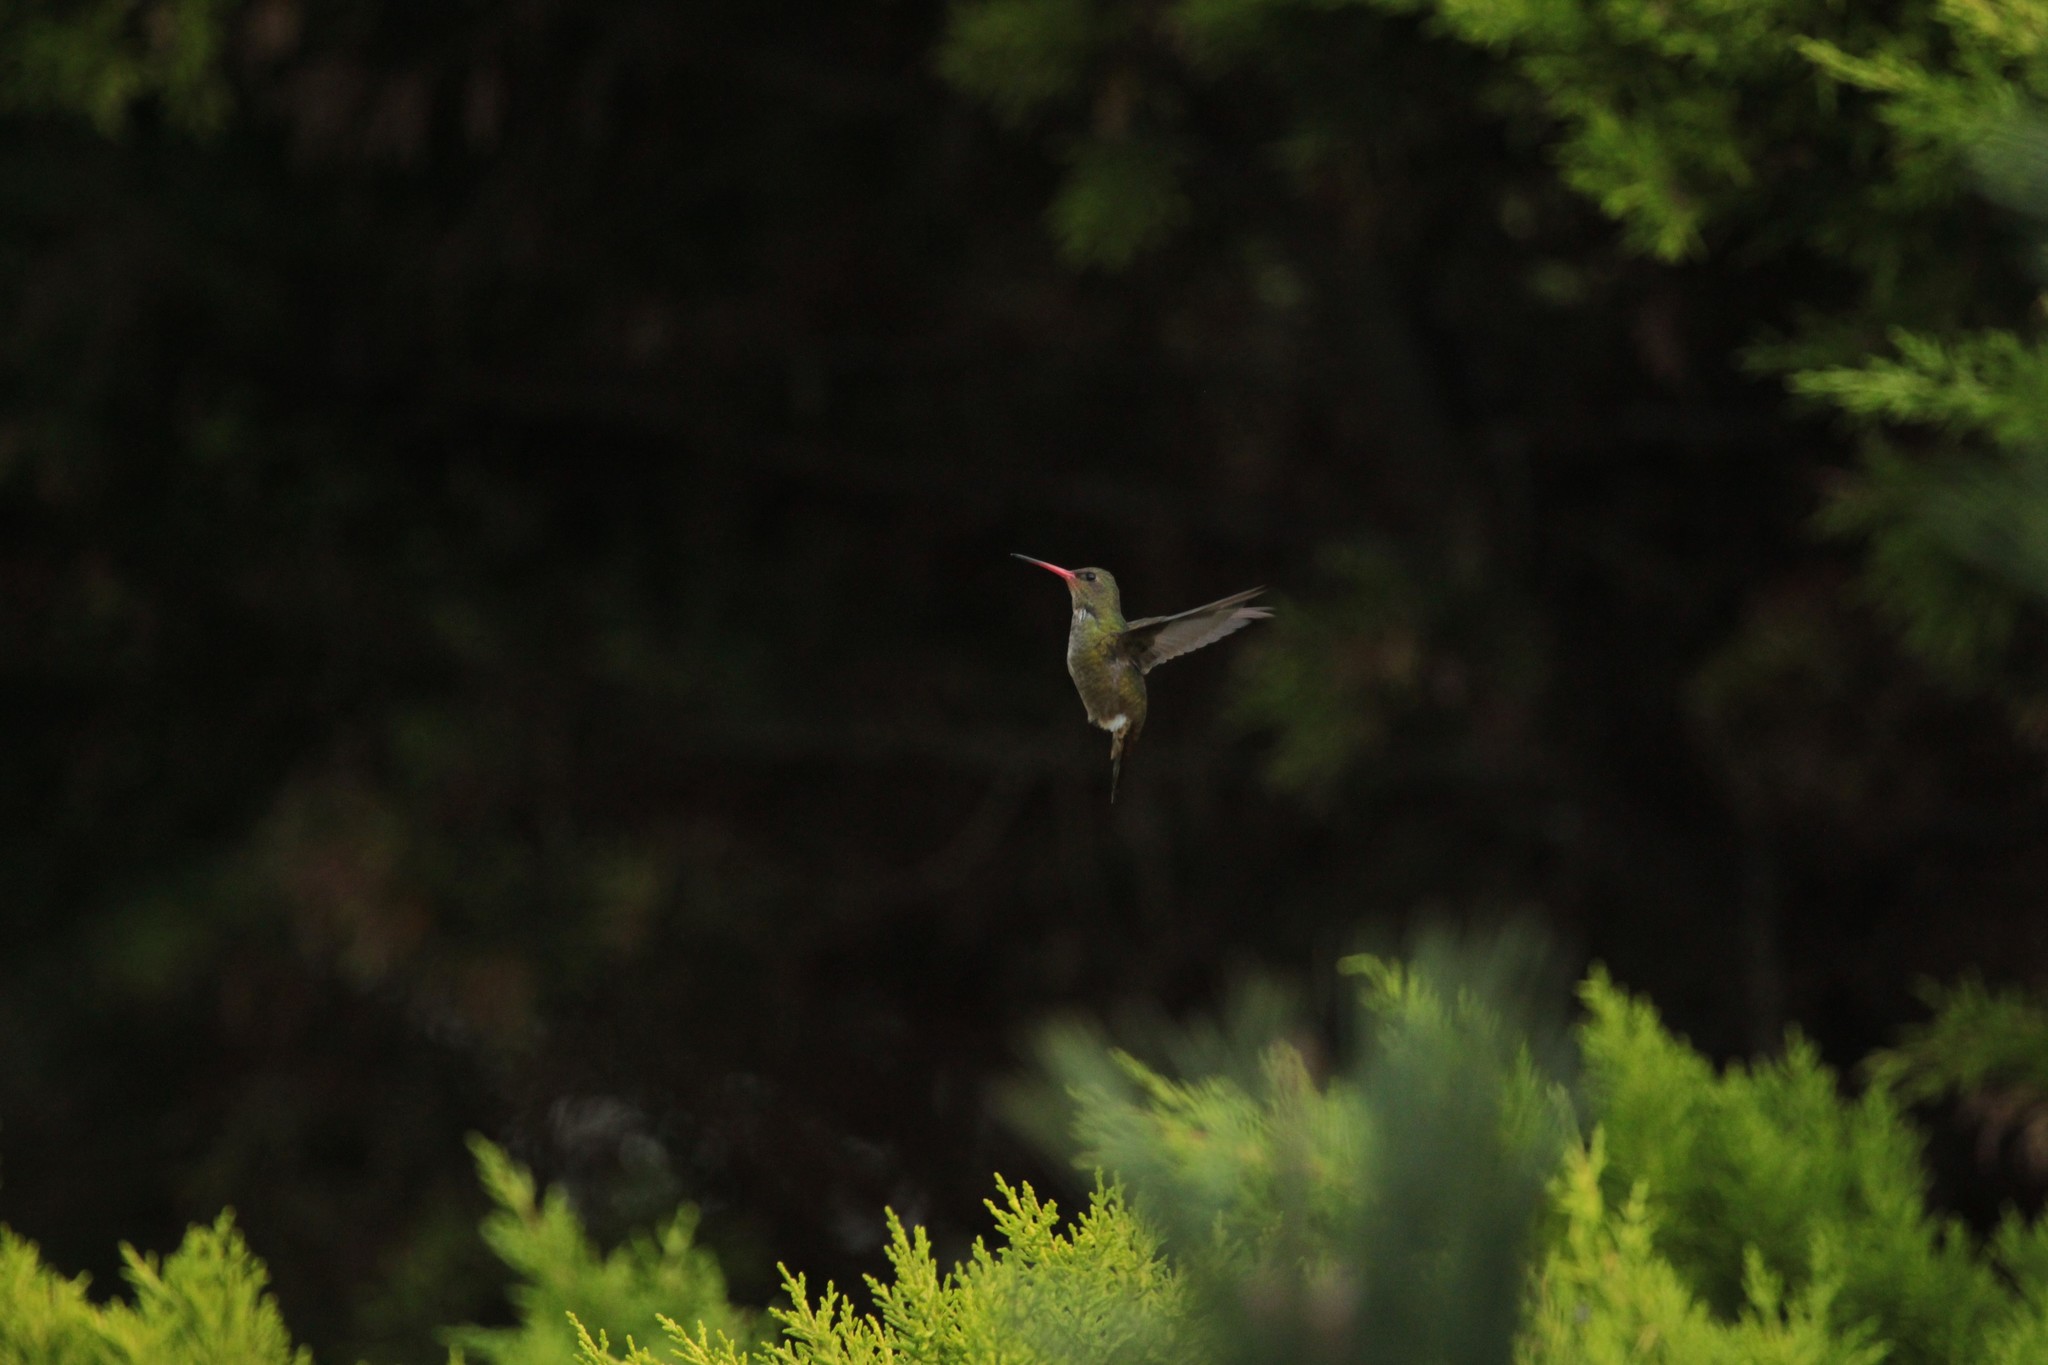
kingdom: Animalia
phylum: Chordata
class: Aves
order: Apodiformes
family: Trochilidae
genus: Hylocharis
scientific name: Hylocharis chrysura
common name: Gilded sapphire
